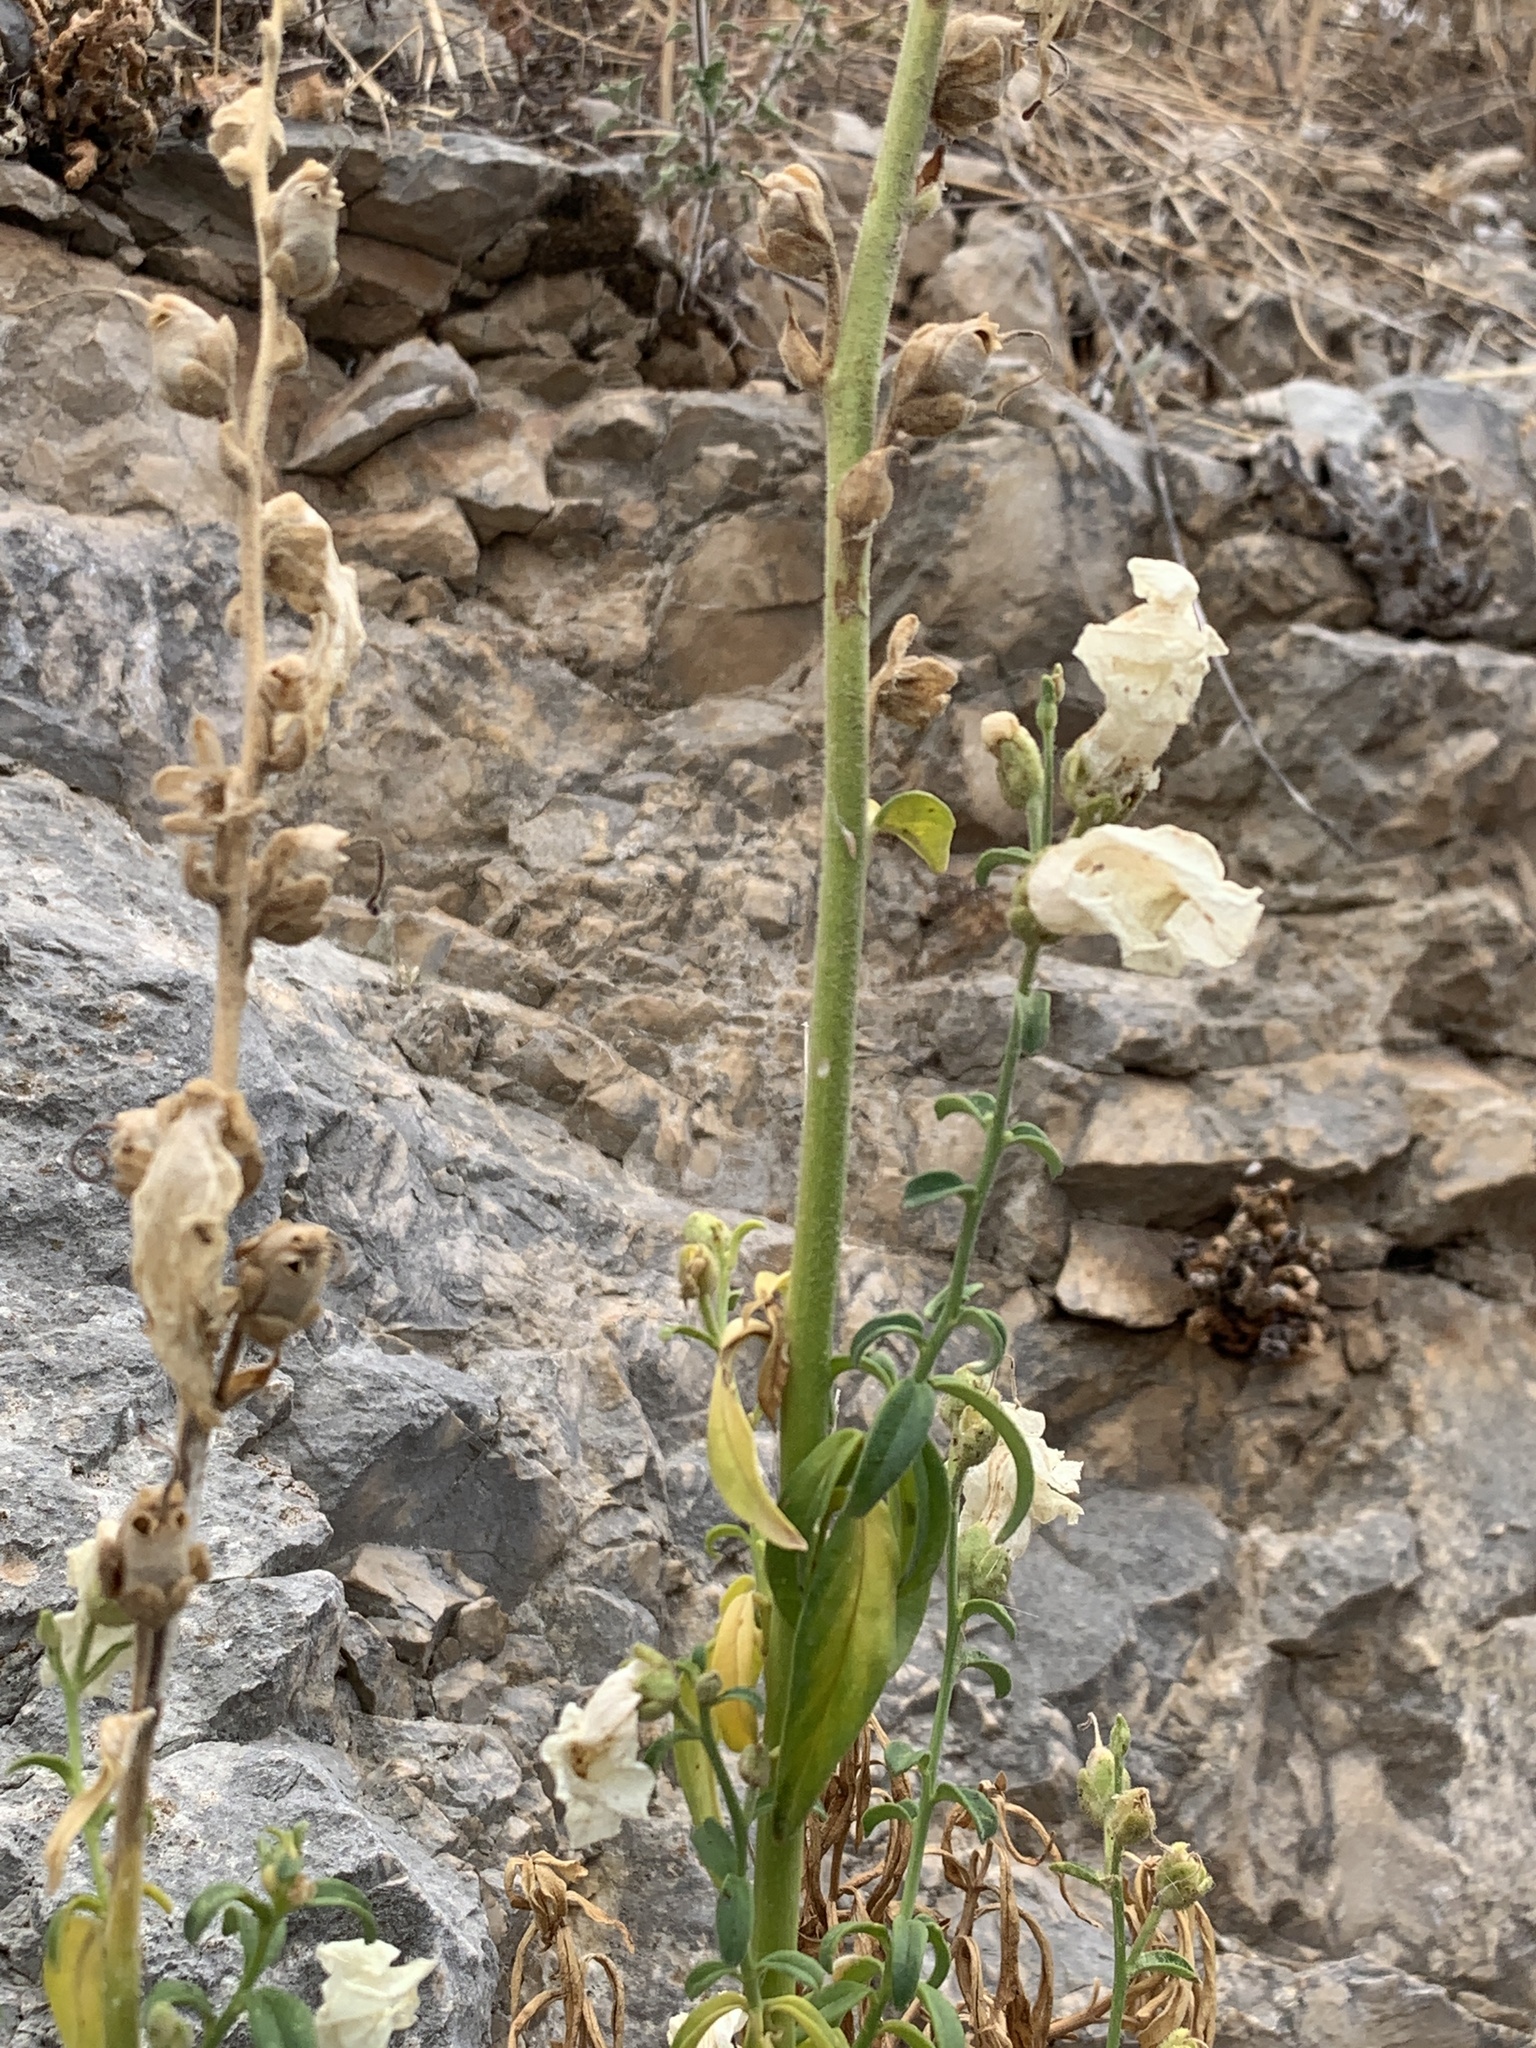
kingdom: Plantae
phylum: Tracheophyta
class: Magnoliopsida
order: Lamiales
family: Plantaginaceae
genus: Antirrhinum
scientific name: Antirrhinum majus
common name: Snapdragon
